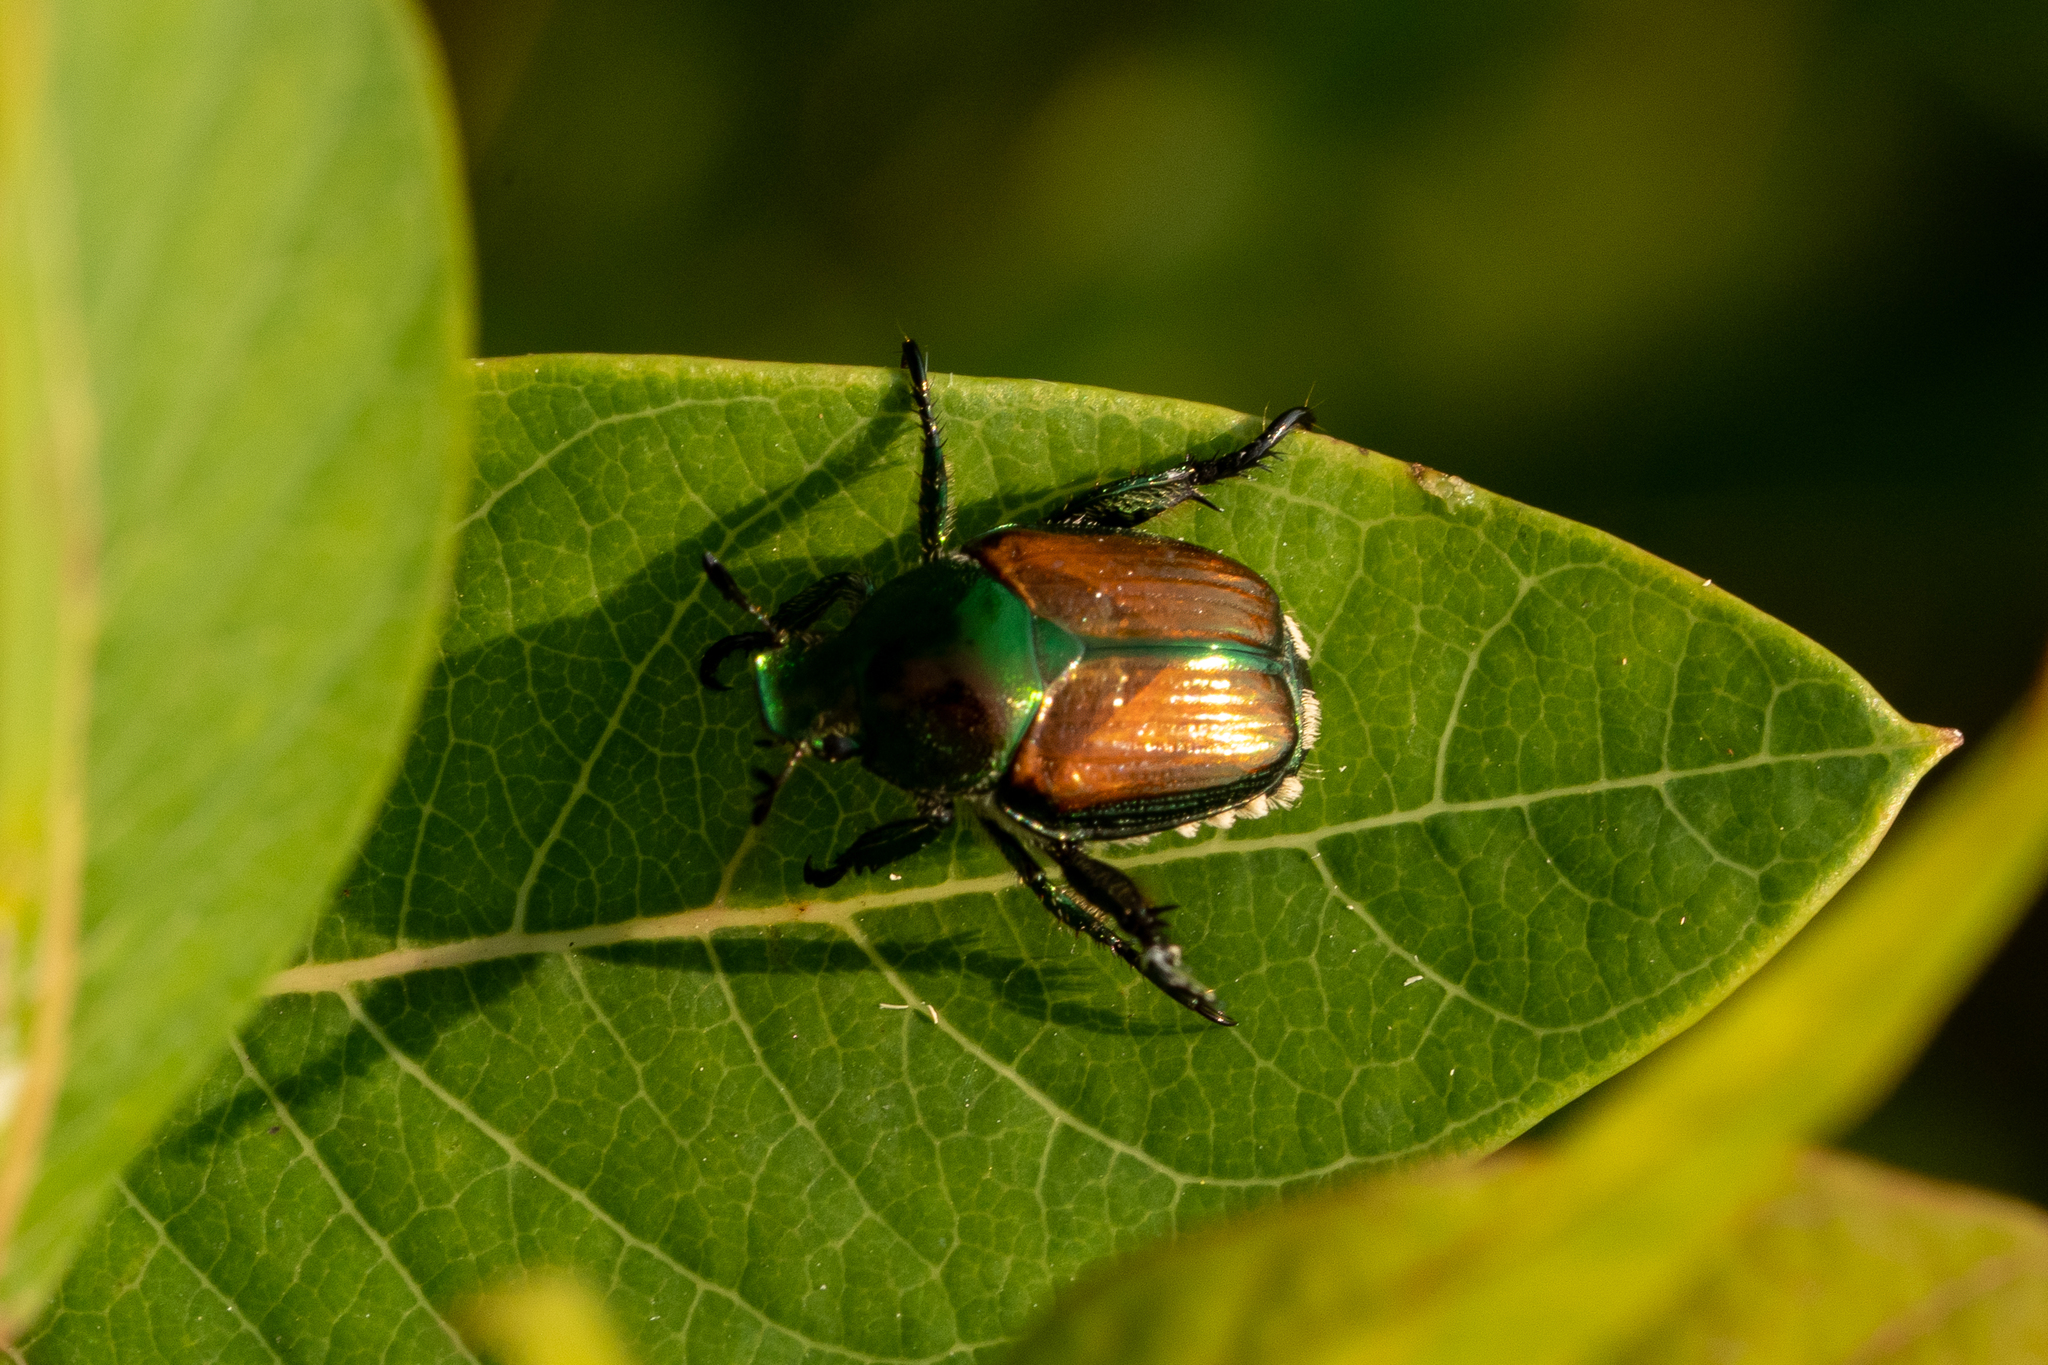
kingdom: Animalia
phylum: Arthropoda
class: Insecta
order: Coleoptera
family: Scarabaeidae
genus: Popillia
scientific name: Popillia japonica
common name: Japanese beetle
